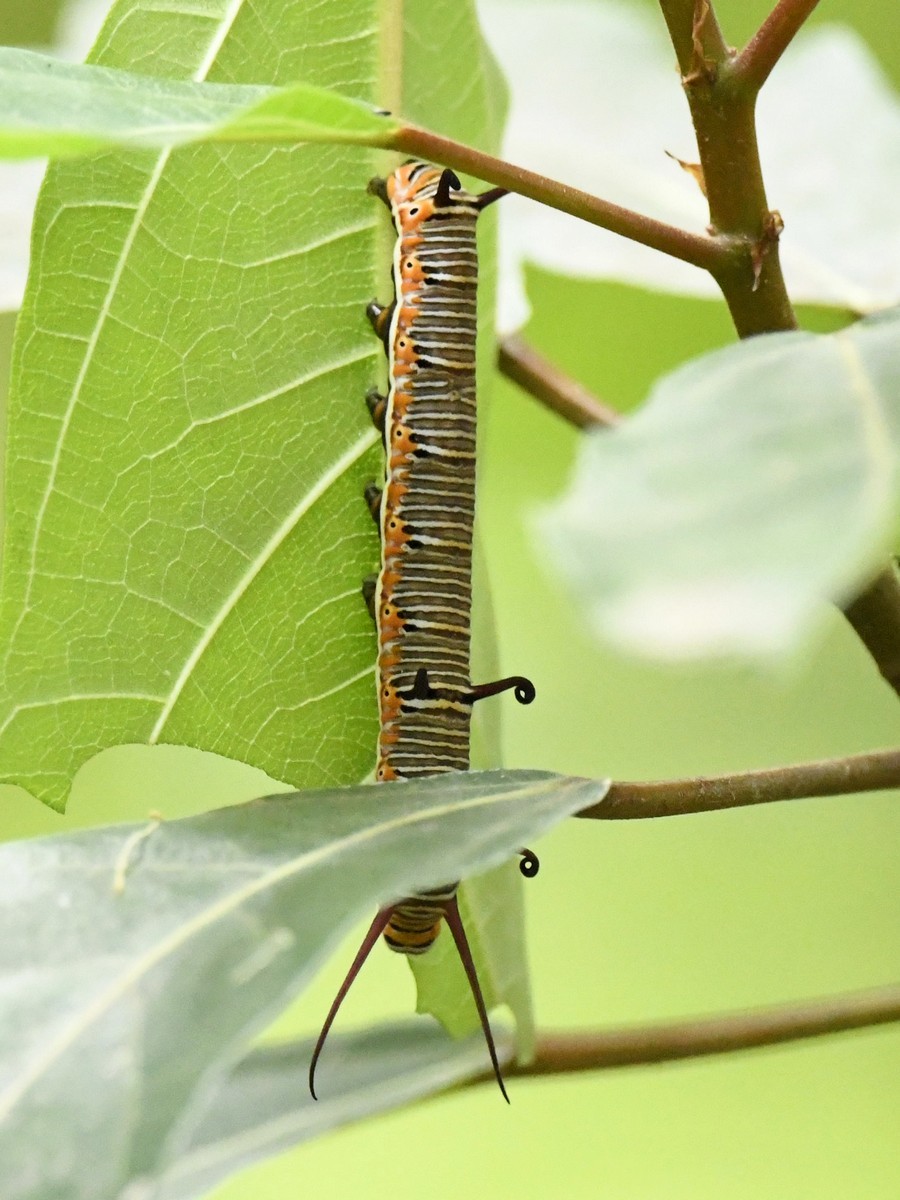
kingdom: Animalia
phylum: Arthropoda
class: Insecta
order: Lepidoptera
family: Nymphalidae
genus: Euploea
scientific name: Euploea core
